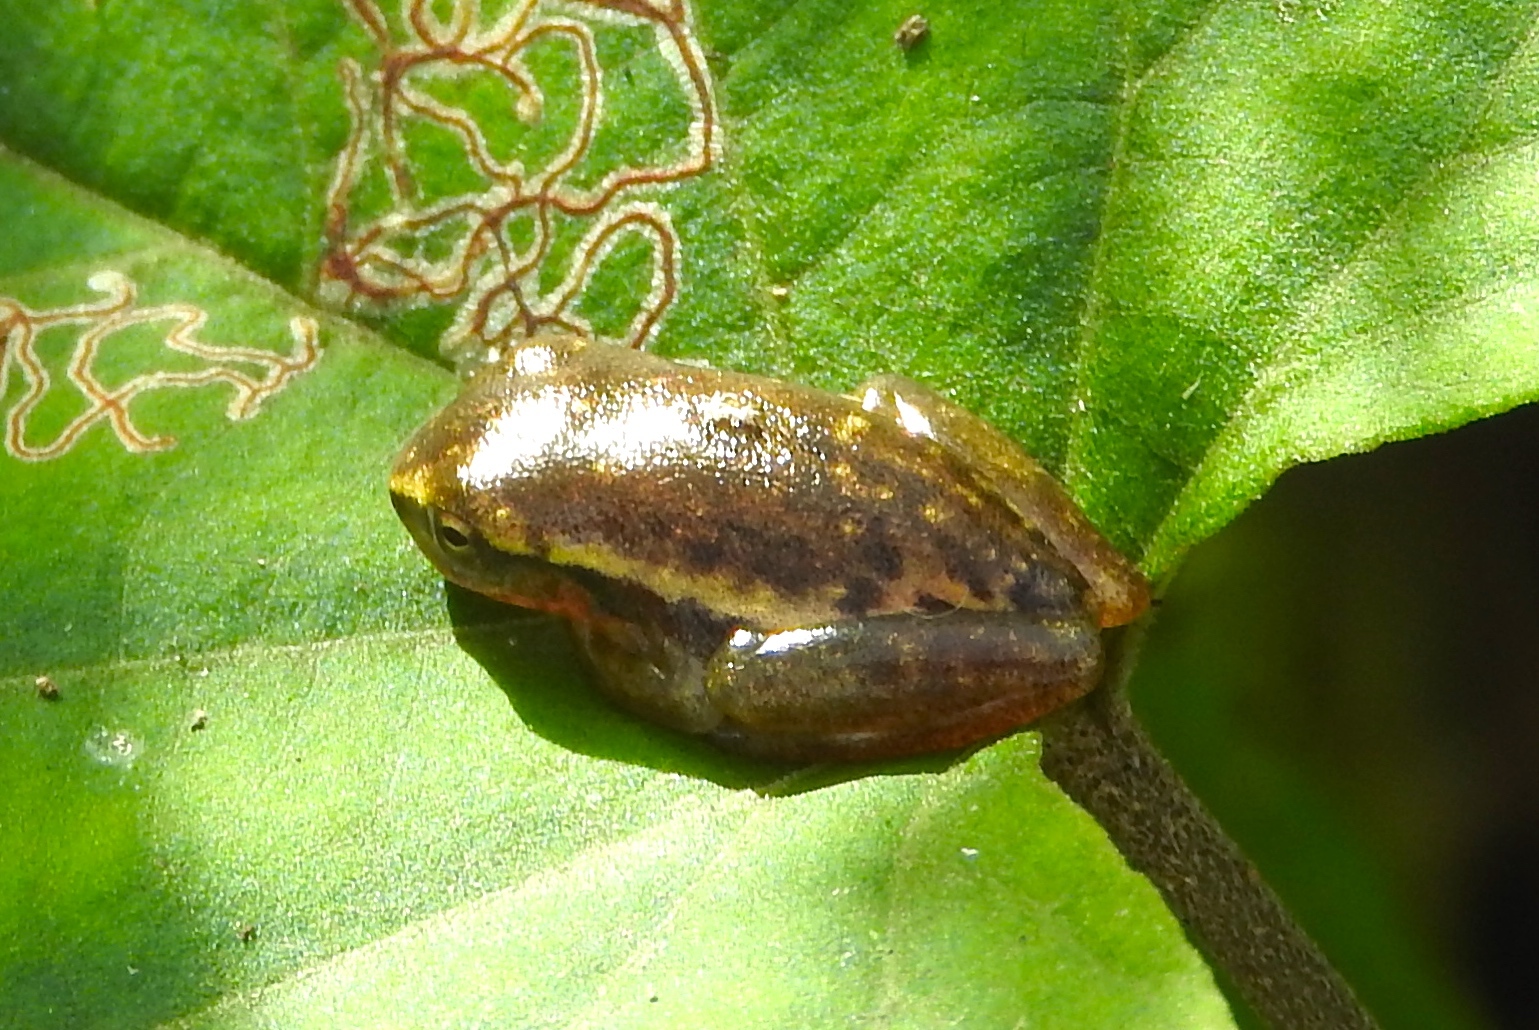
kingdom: Animalia
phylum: Chordata
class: Amphibia
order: Anura
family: Hylidae
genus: Tlalocohyla
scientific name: Tlalocohyla smithii
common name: Dwarf mexican treefrog
